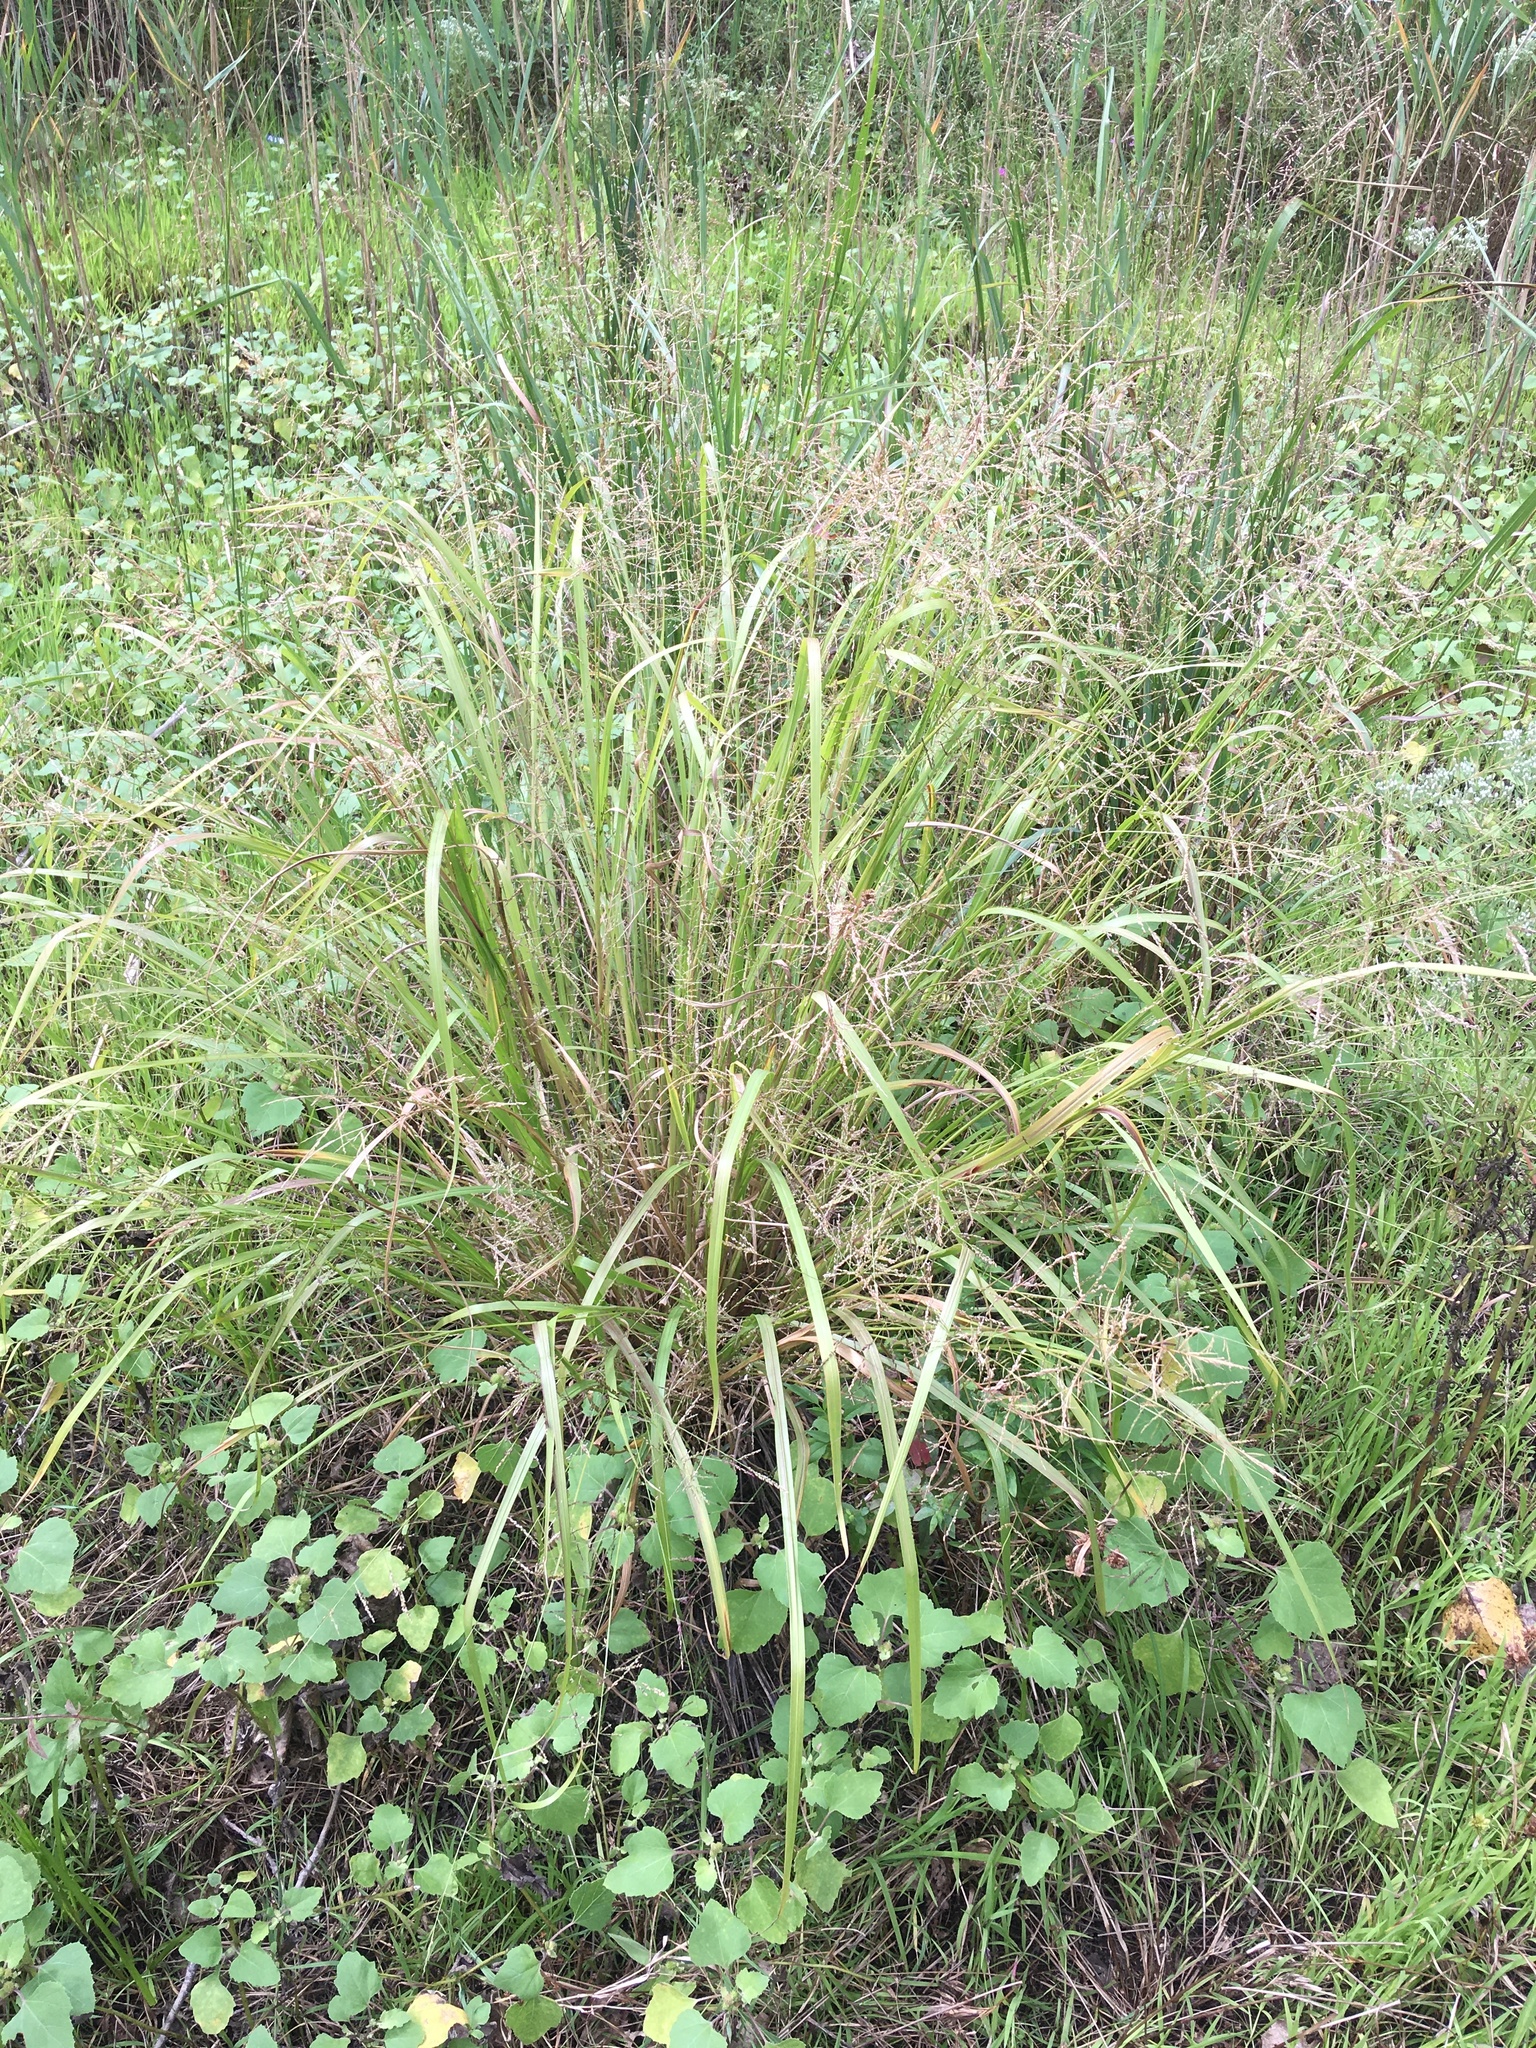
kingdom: Plantae
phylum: Tracheophyta
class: Liliopsida
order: Poales
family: Poaceae
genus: Coleataenia
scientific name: Coleataenia rigidula
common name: Redtop panicgrass
